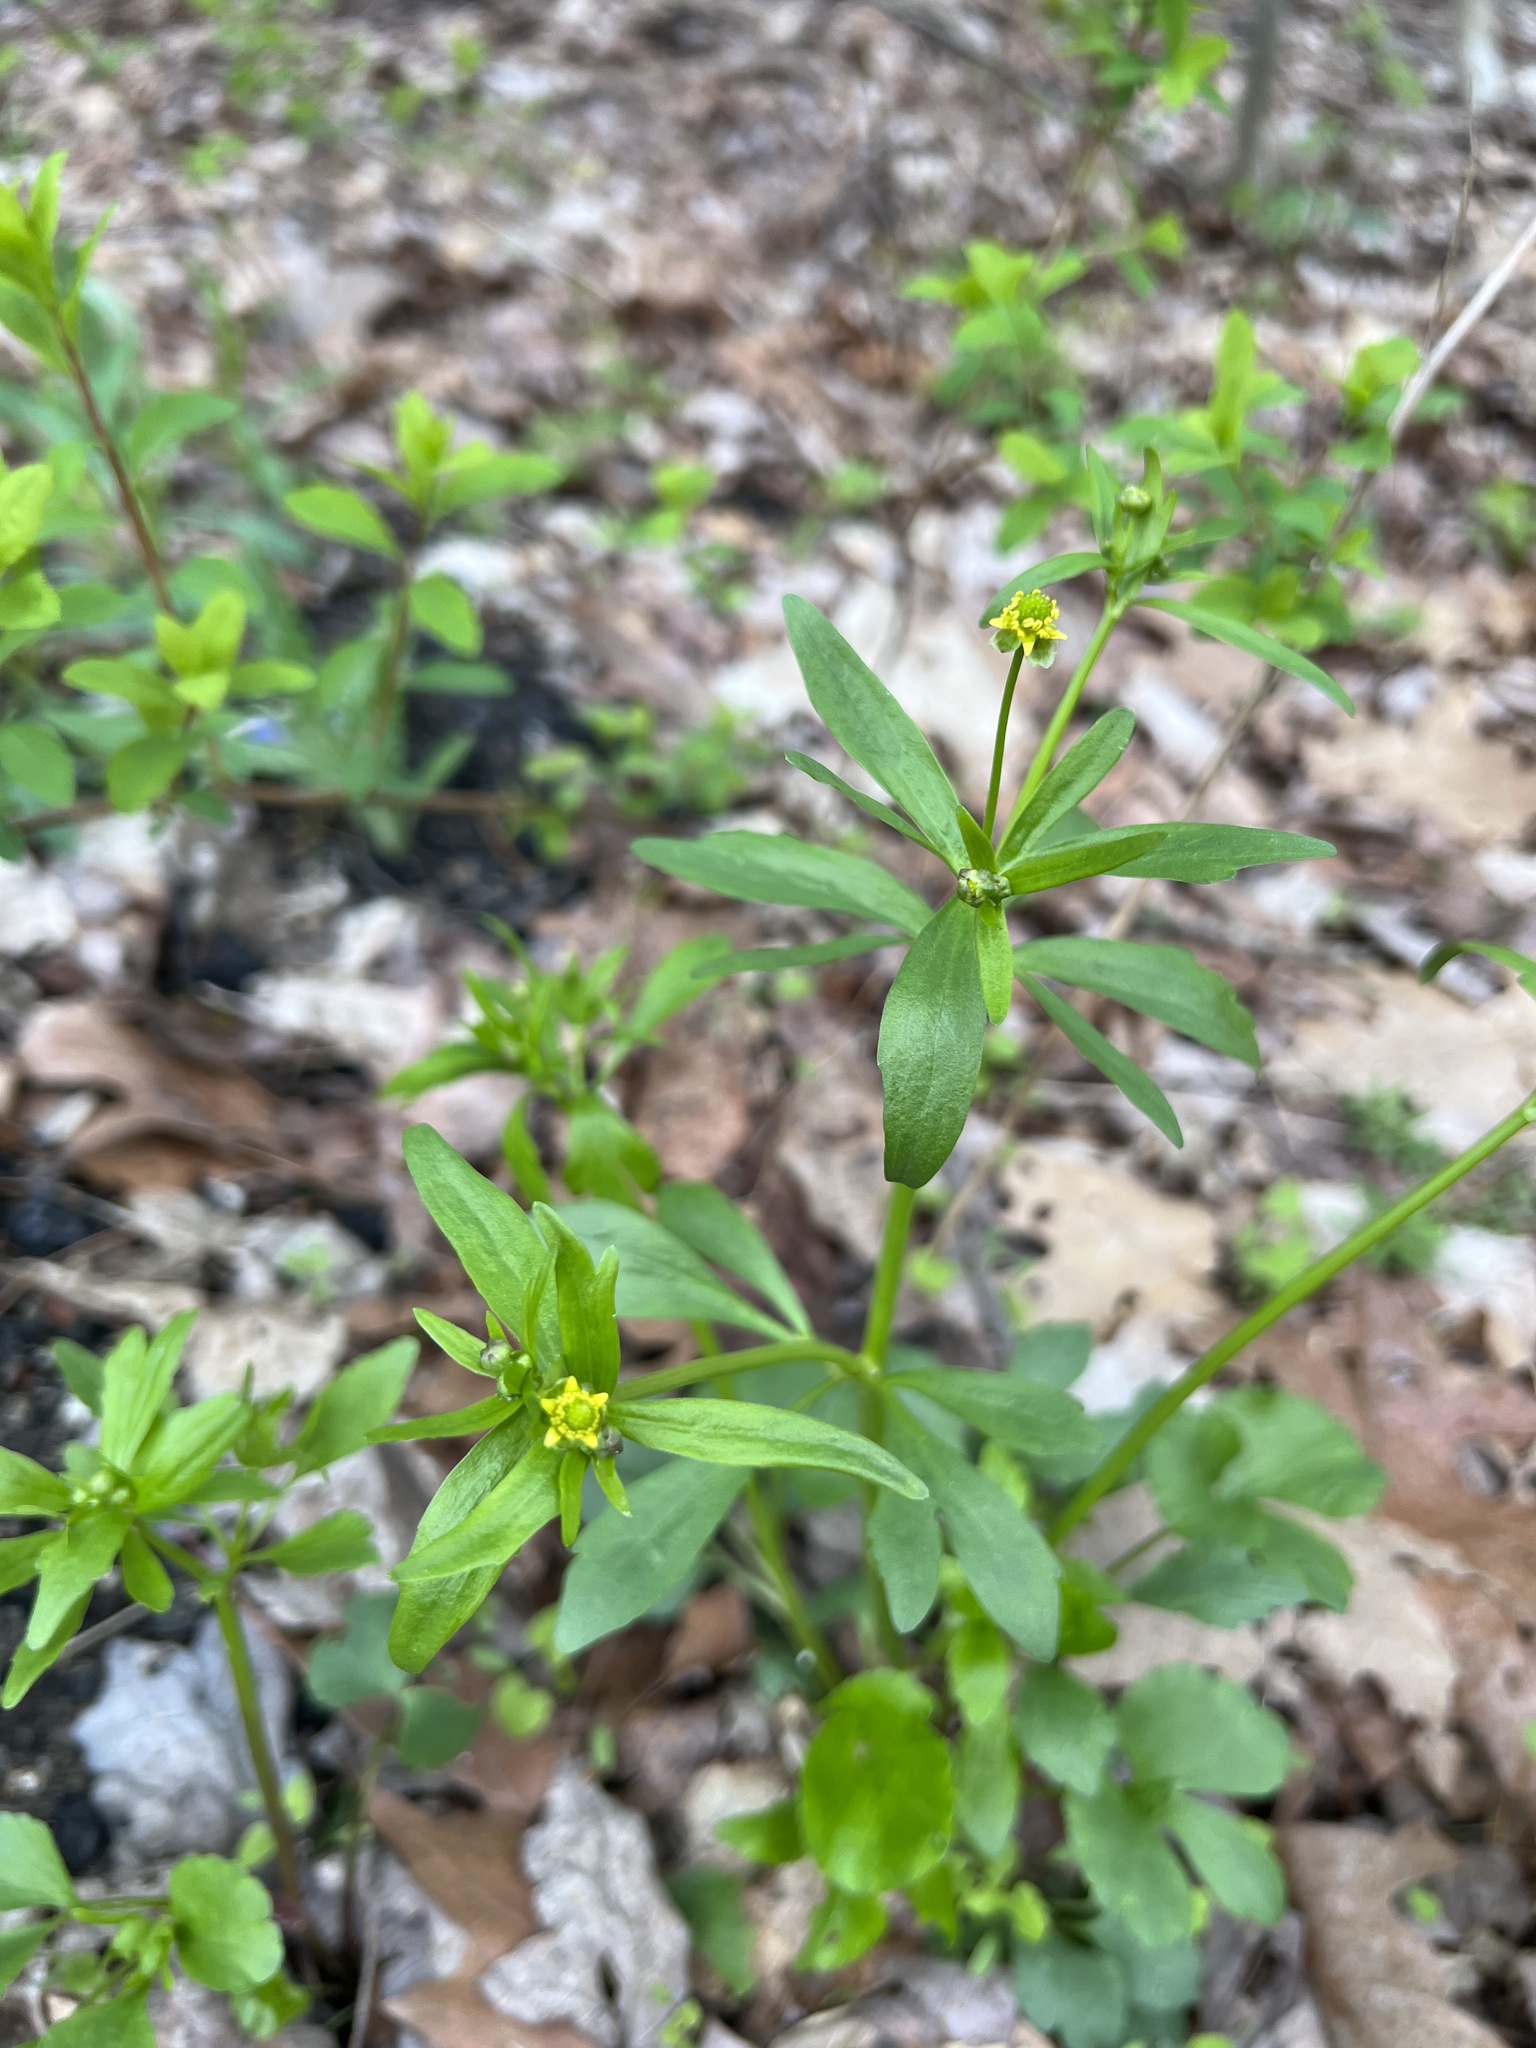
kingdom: Plantae
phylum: Tracheophyta
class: Magnoliopsida
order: Ranunculales
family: Ranunculaceae
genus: Ranunculus
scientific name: Ranunculus abortivus
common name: Early wood buttercup
